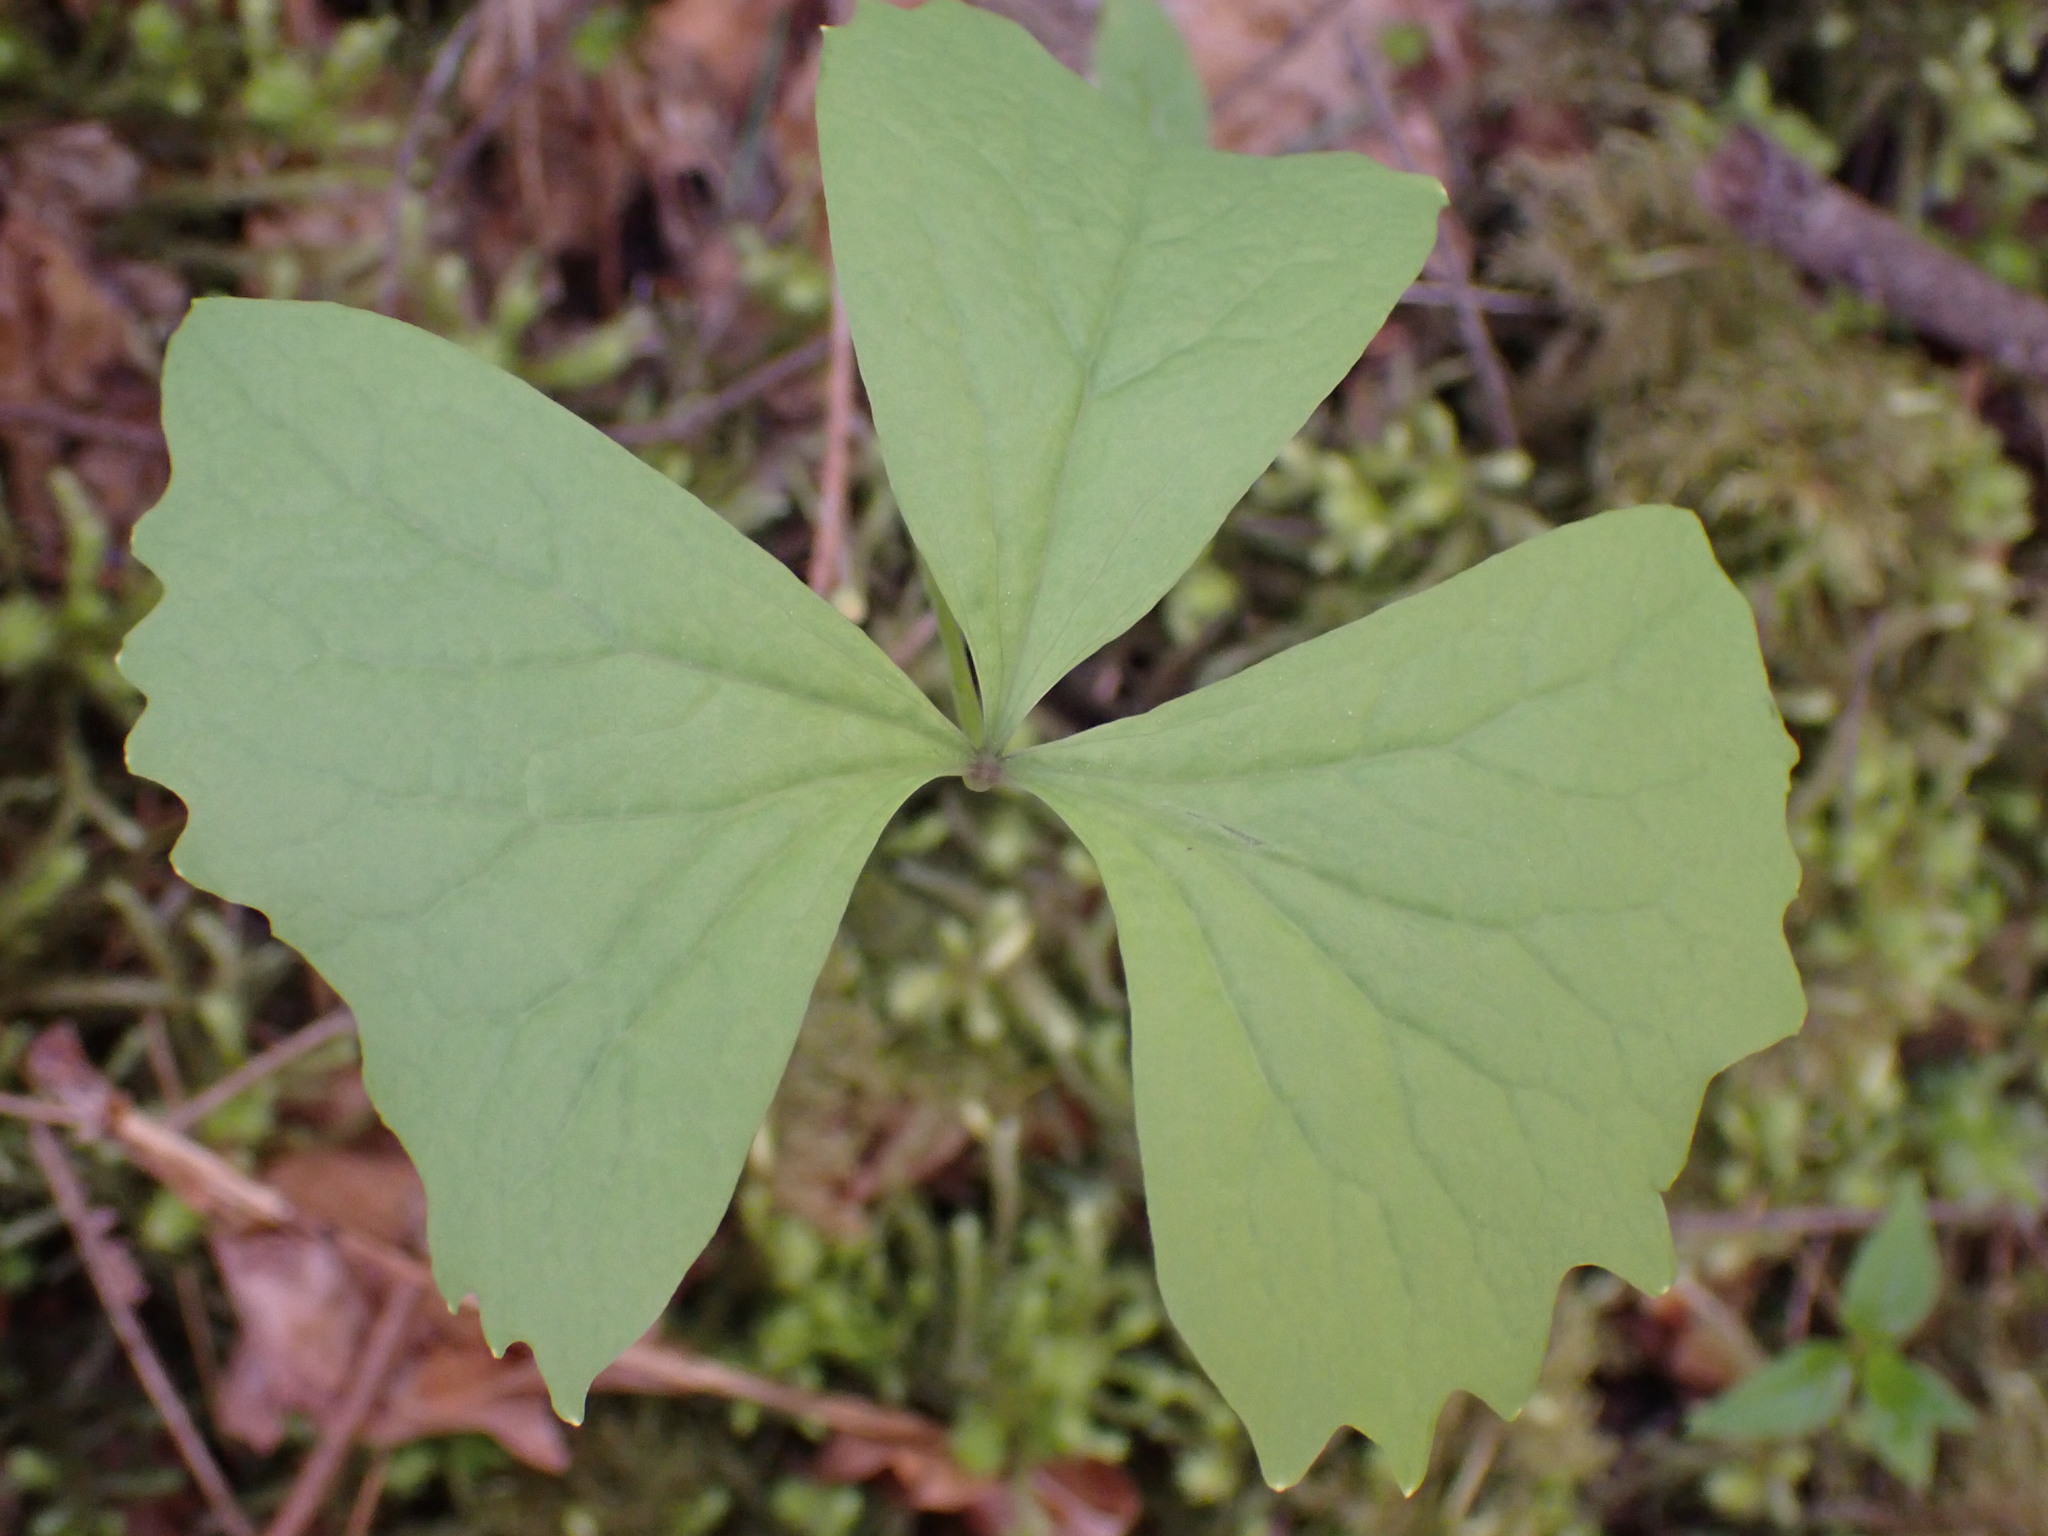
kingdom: Plantae
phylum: Tracheophyta
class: Magnoliopsida
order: Ranunculales
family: Berberidaceae
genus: Achlys
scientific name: Achlys triphylla
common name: Vanilla-leaf
